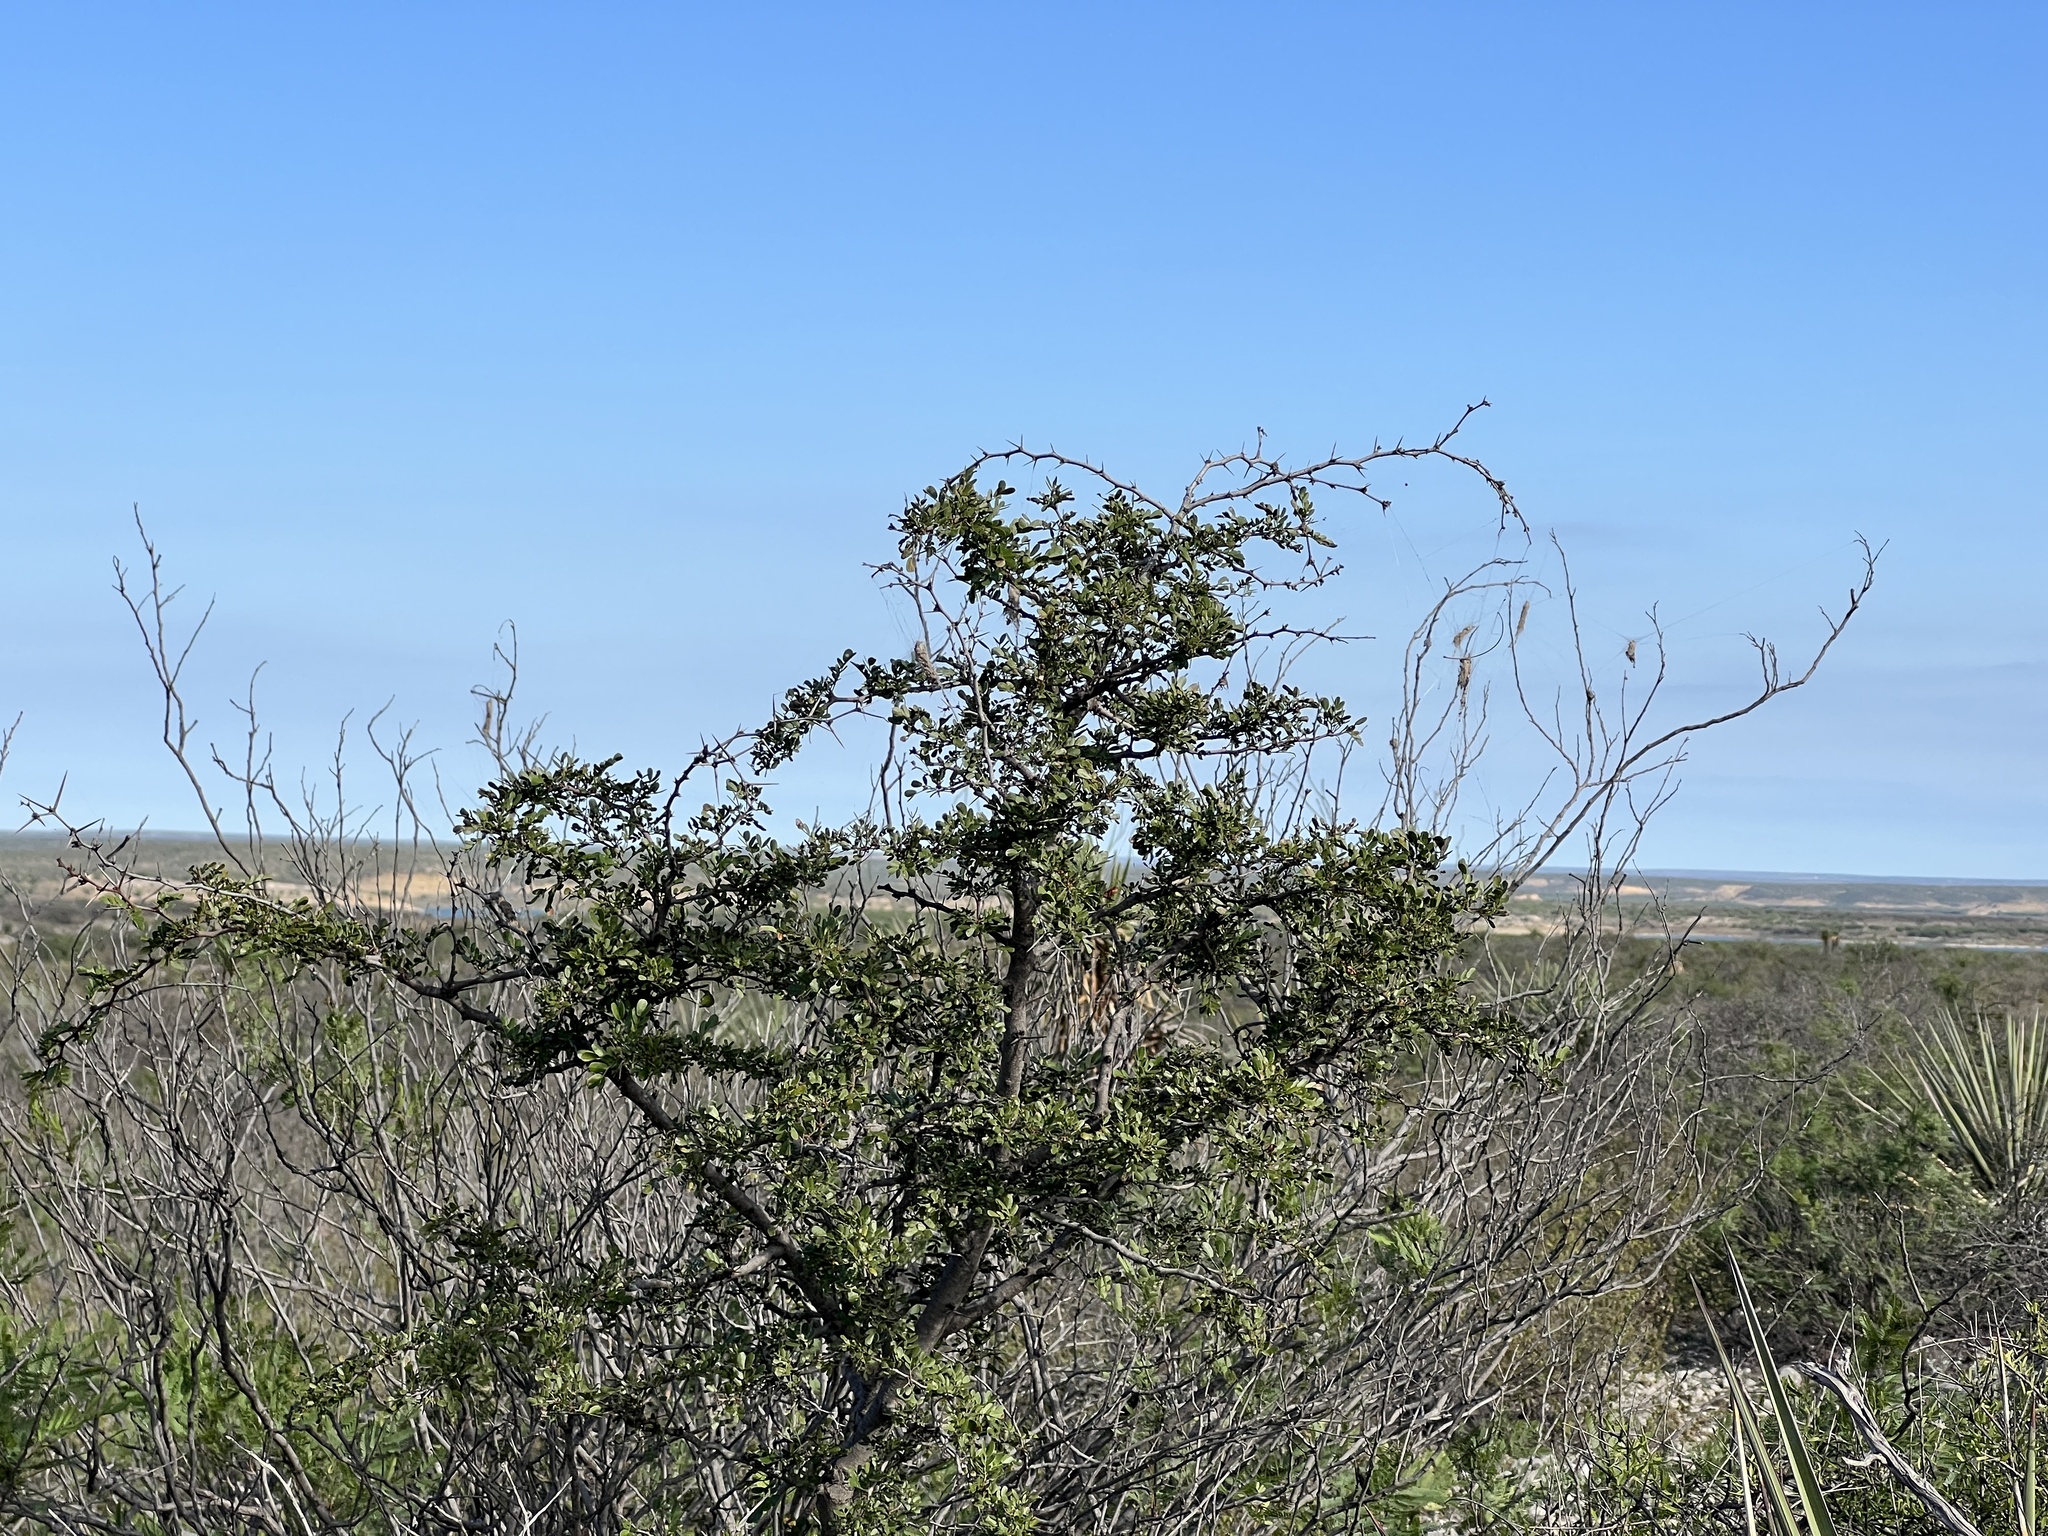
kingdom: Plantae
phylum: Tracheophyta
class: Magnoliopsida
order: Fabales
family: Fabaceae
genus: Vachellia
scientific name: Vachellia rigidula
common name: Blackbrush
